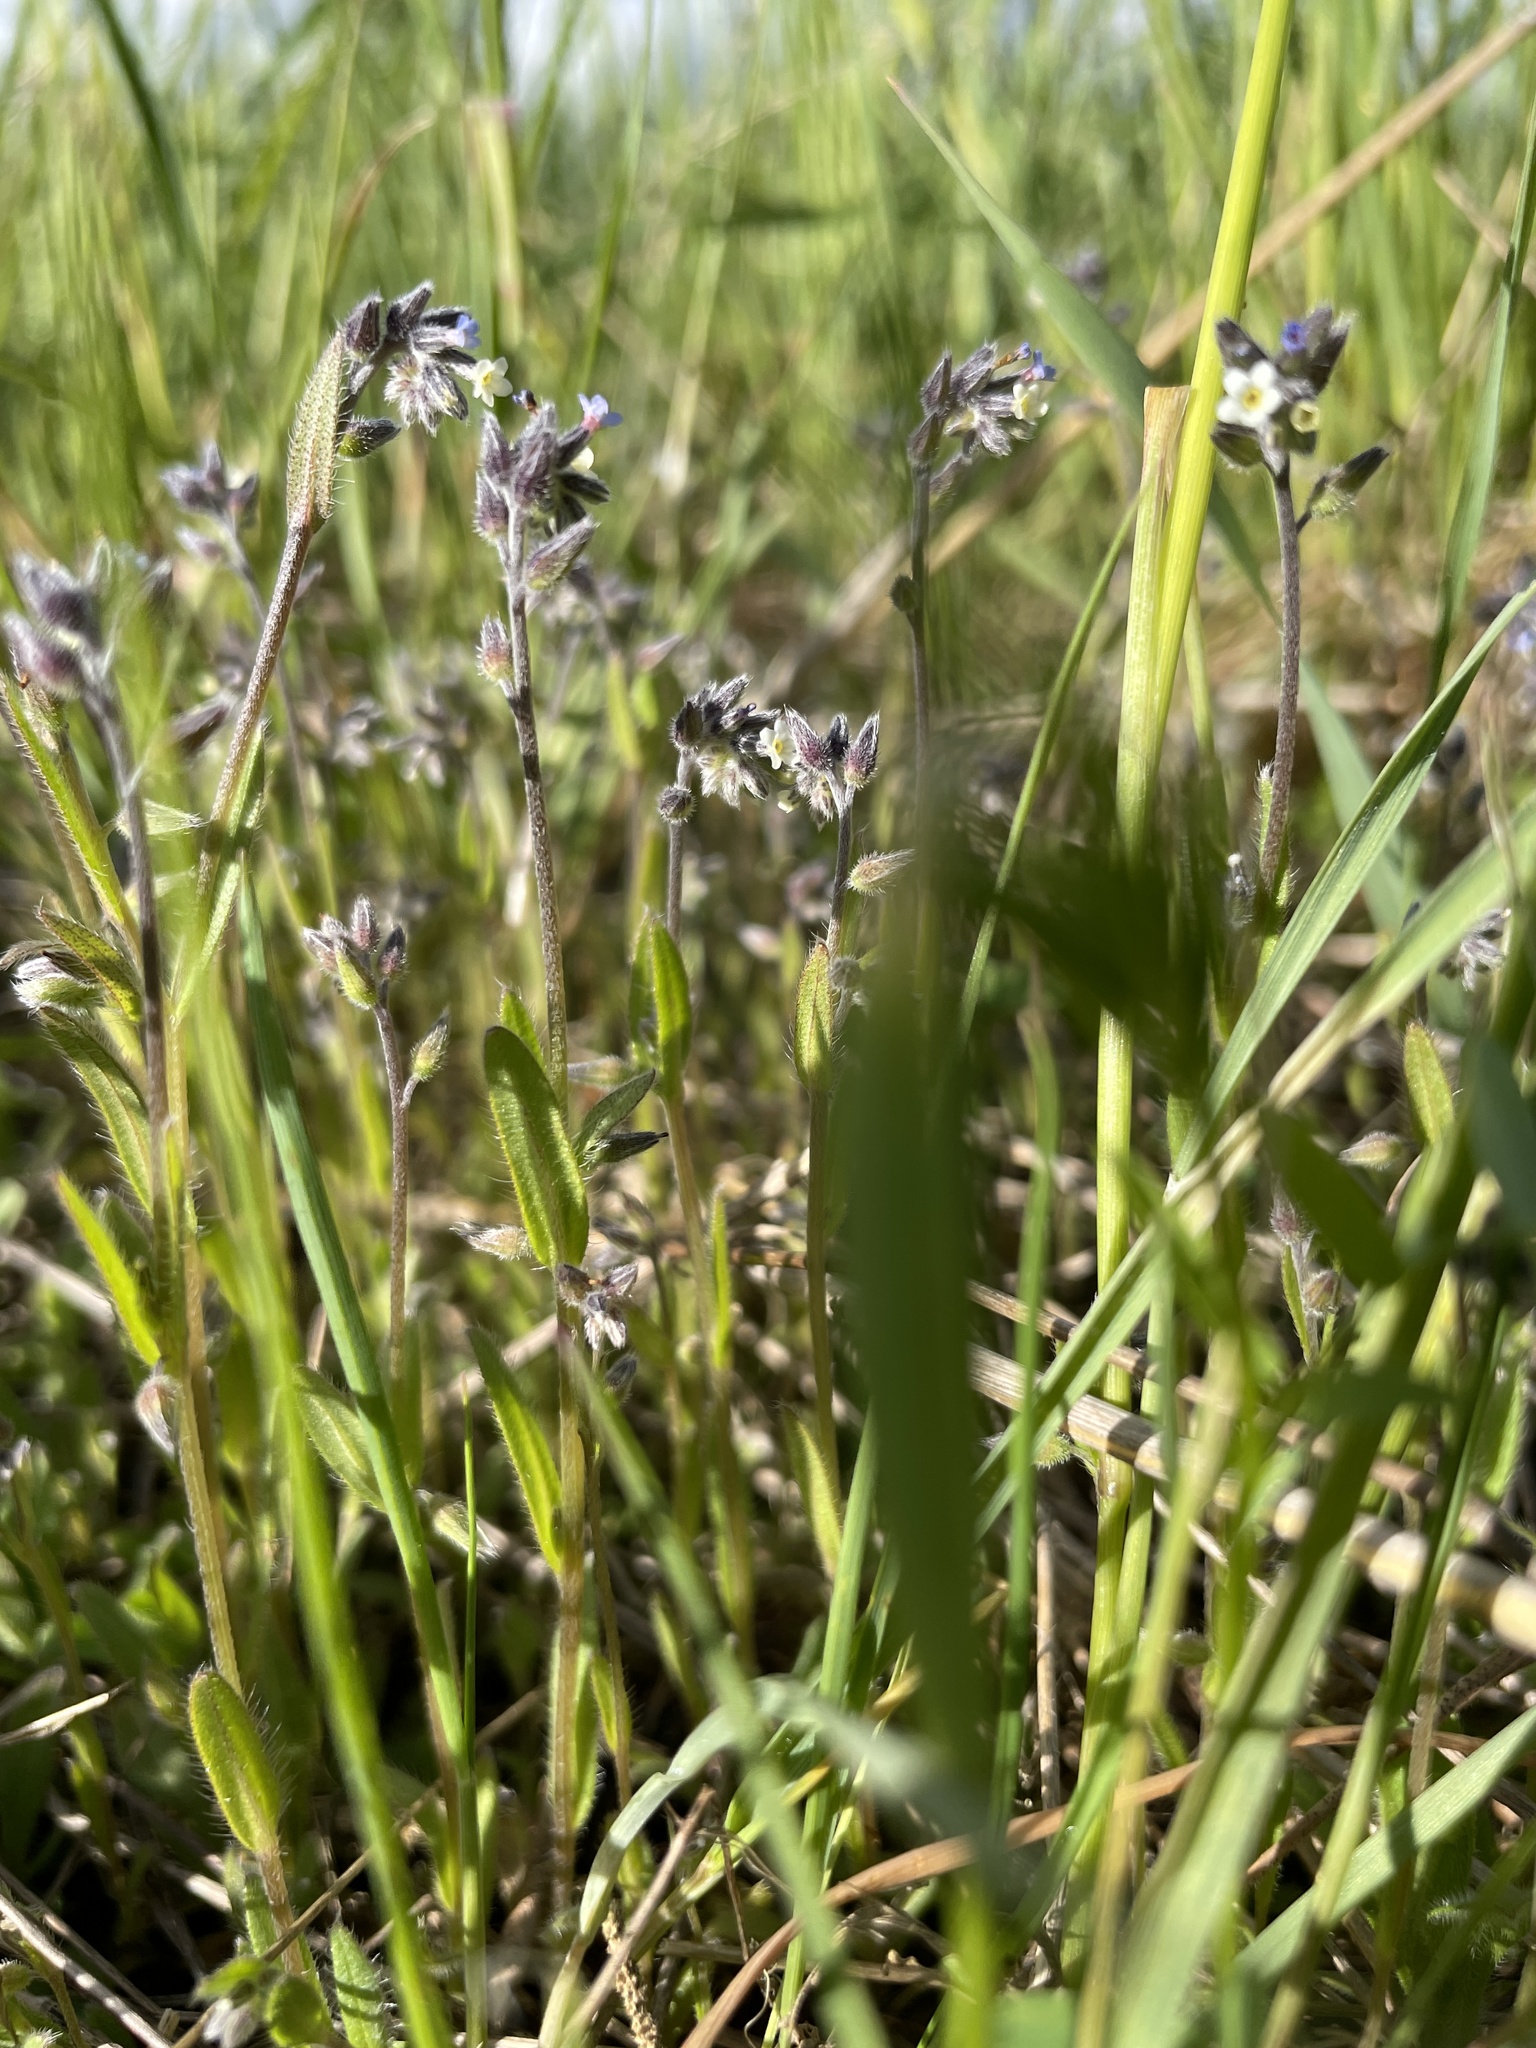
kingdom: Plantae
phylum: Tracheophyta
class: Magnoliopsida
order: Boraginales
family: Boraginaceae
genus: Myosotis
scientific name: Myosotis discolor
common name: Changing forget-me-not
